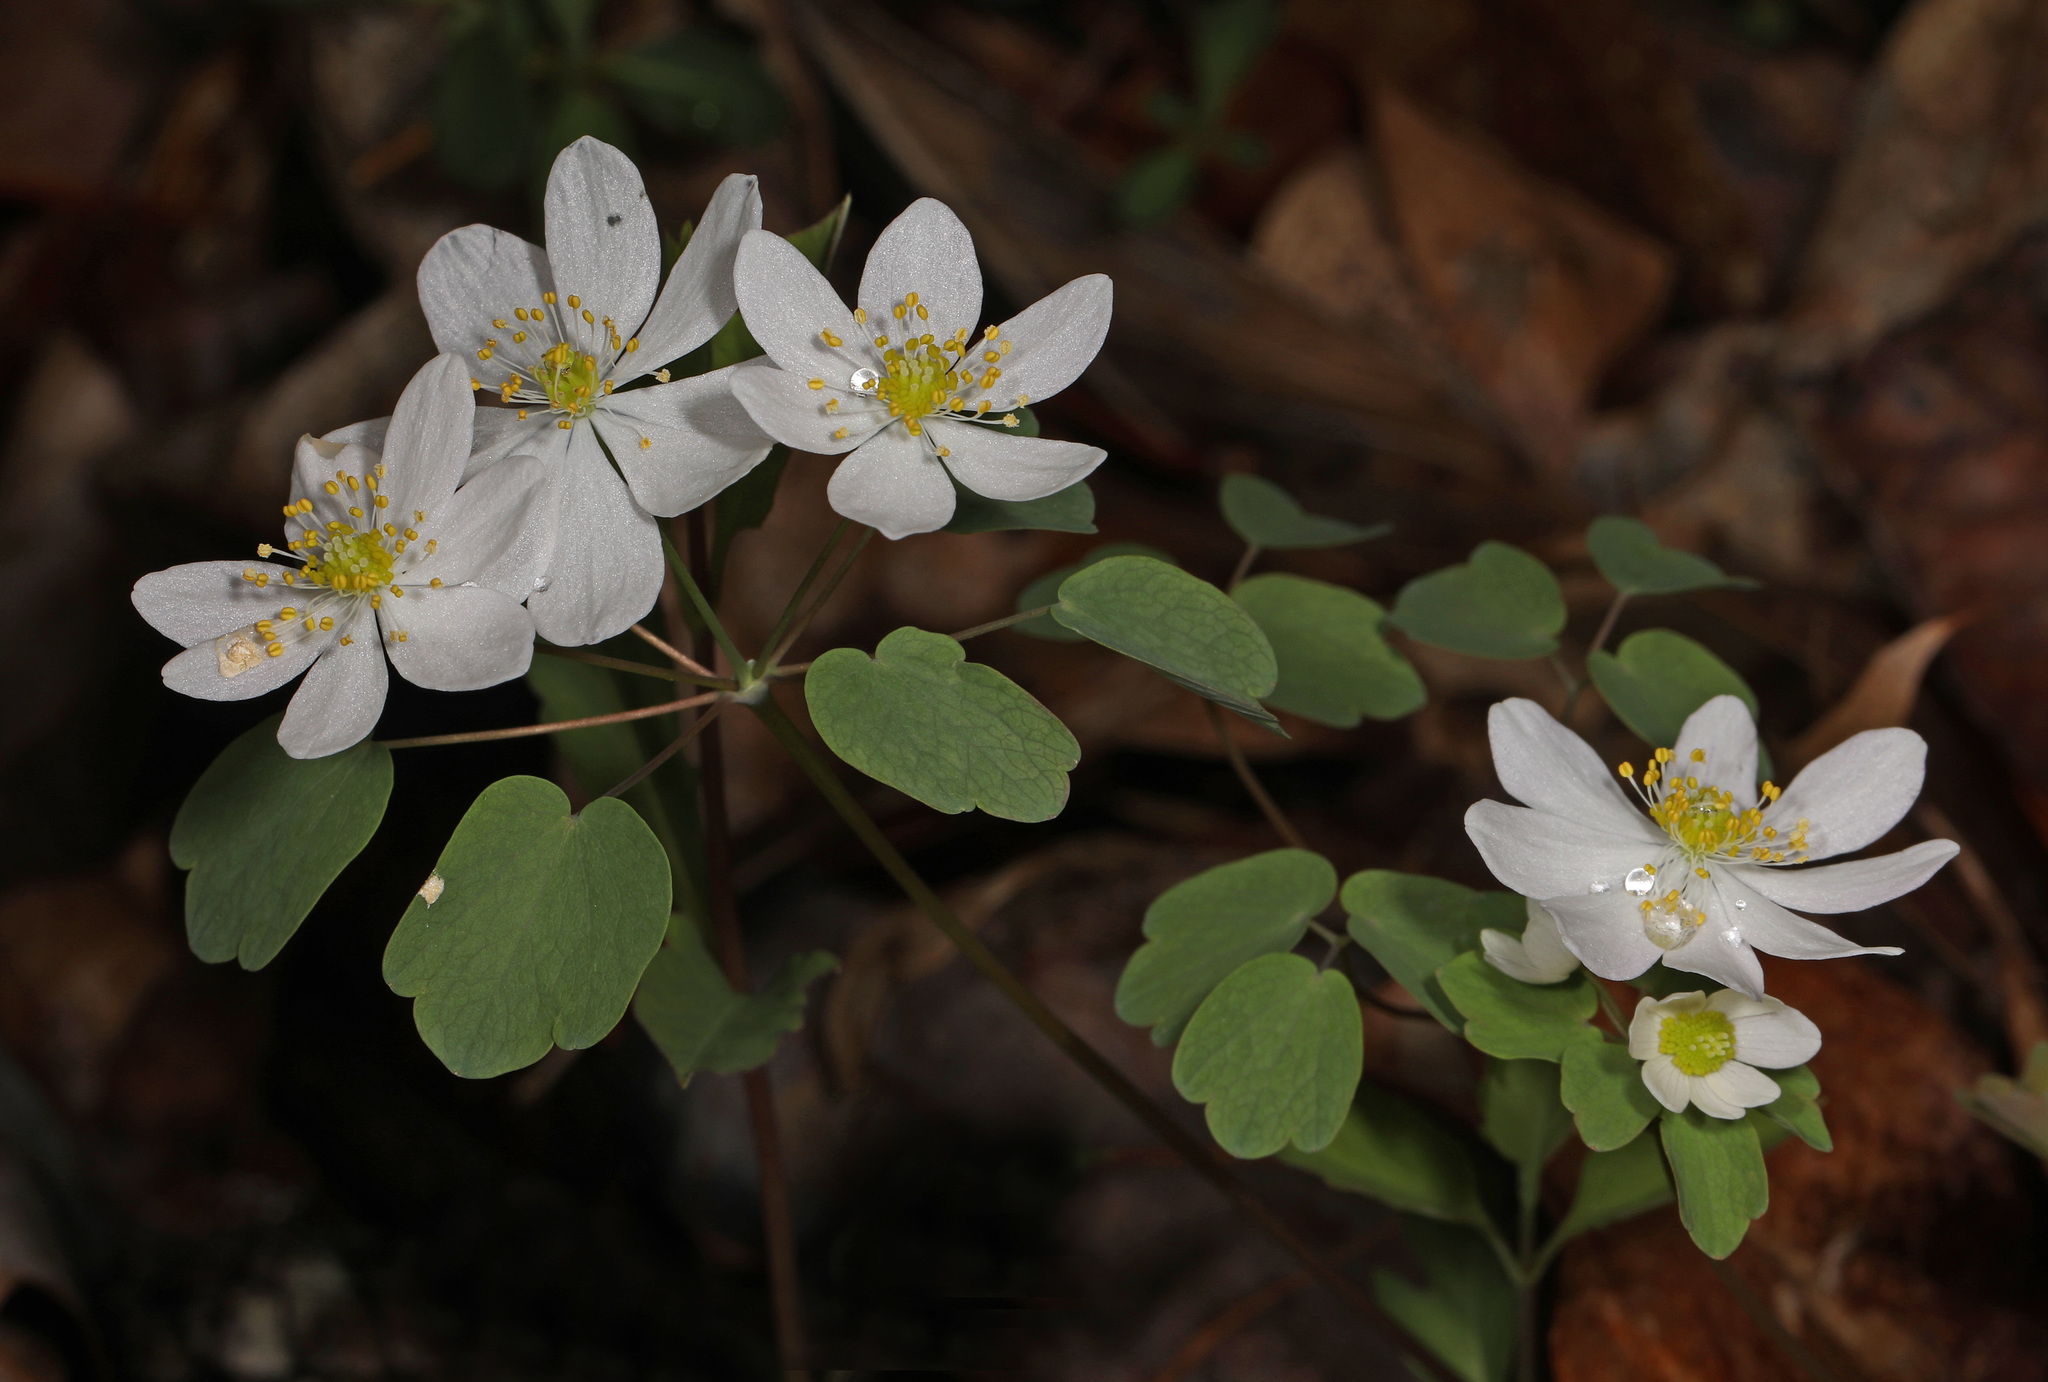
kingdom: Plantae
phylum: Tracheophyta
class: Magnoliopsida
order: Ranunculales
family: Ranunculaceae
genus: Thalictrum
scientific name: Thalictrum thalictroides
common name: Rue-anemone
